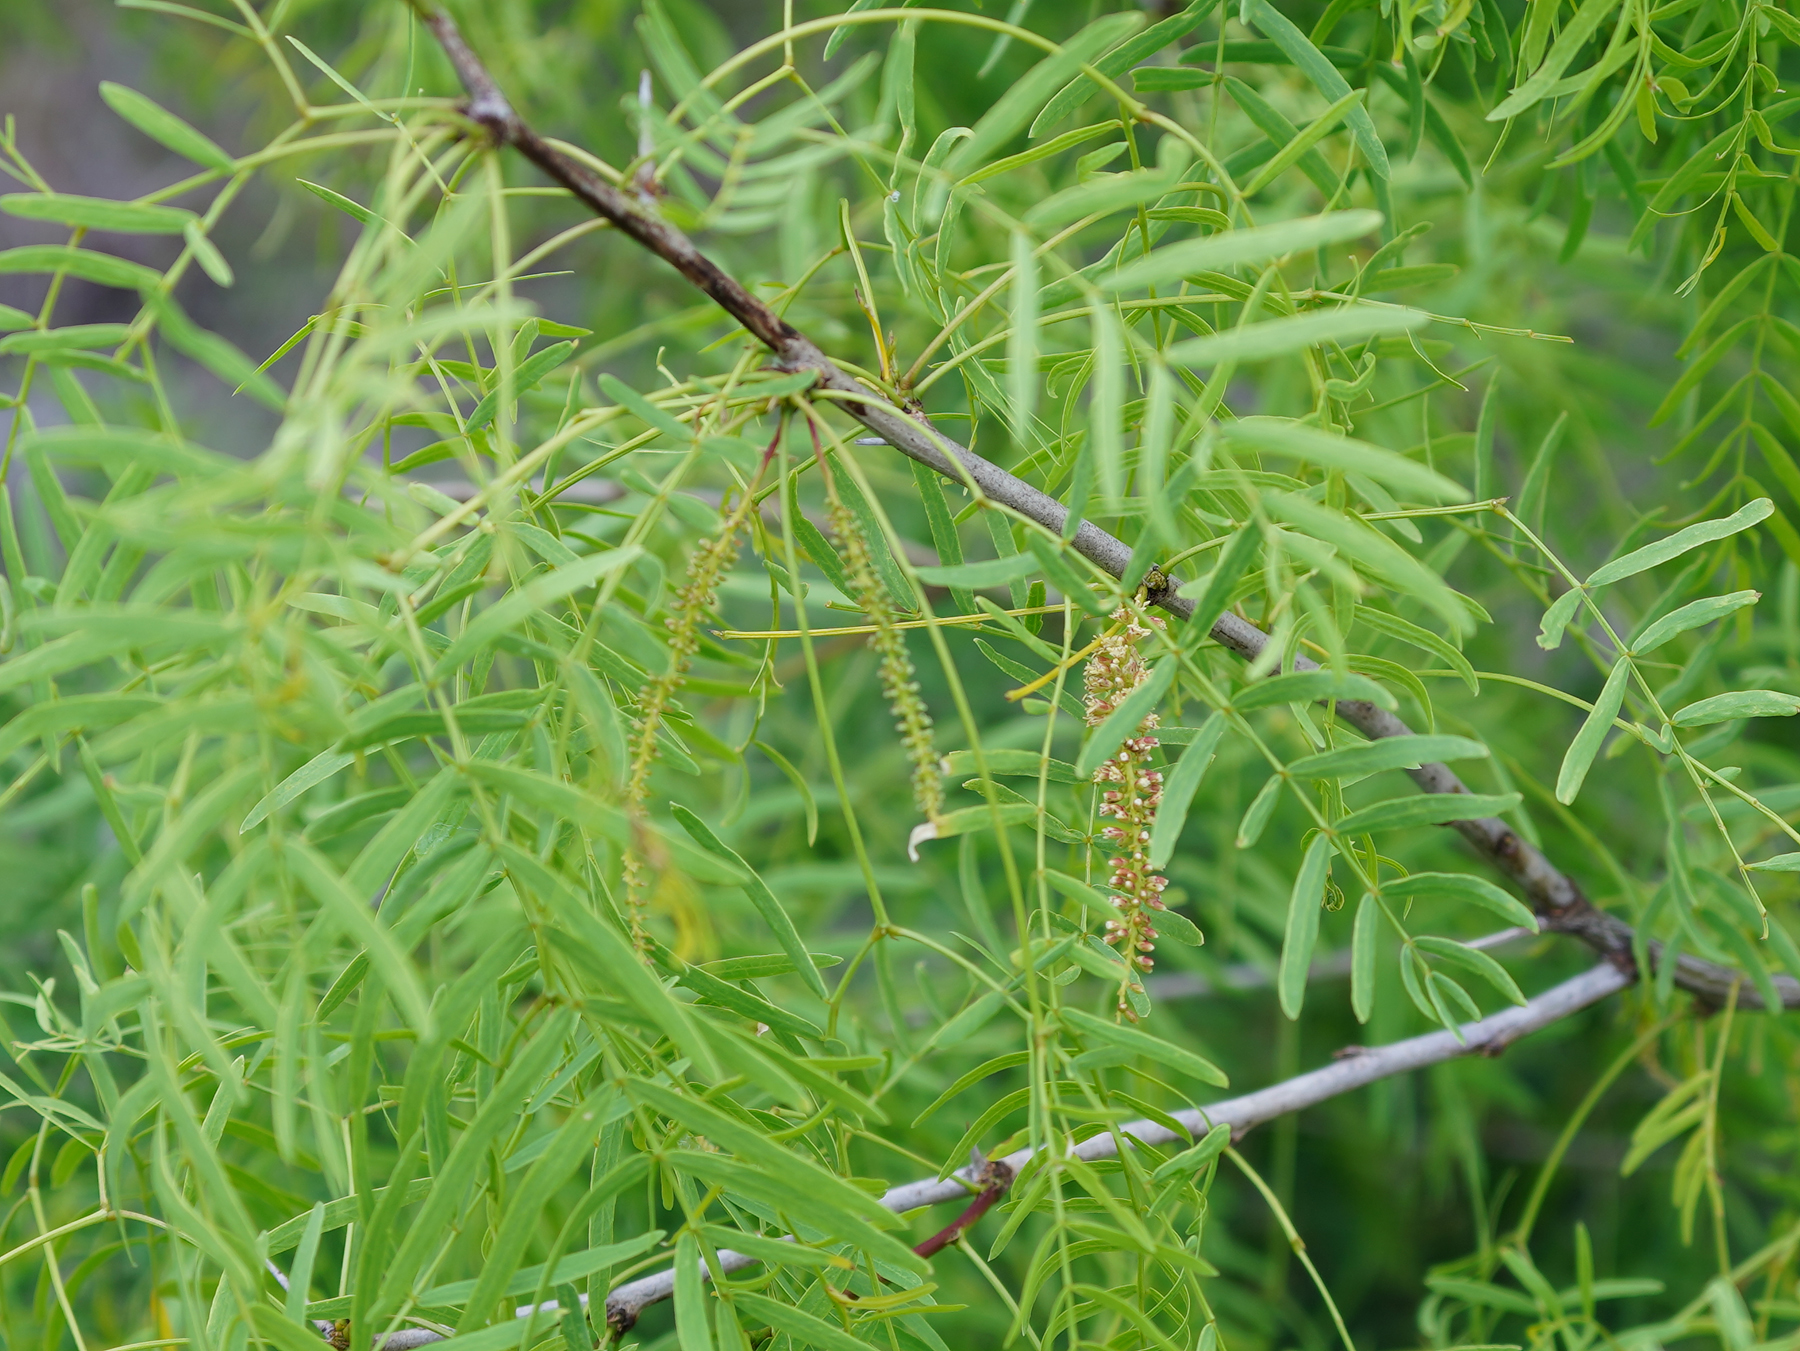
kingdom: Plantae
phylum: Tracheophyta
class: Magnoliopsida
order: Fabales
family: Fabaceae
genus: Prosopis
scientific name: Prosopis glandulosa
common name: Honey mesquite
